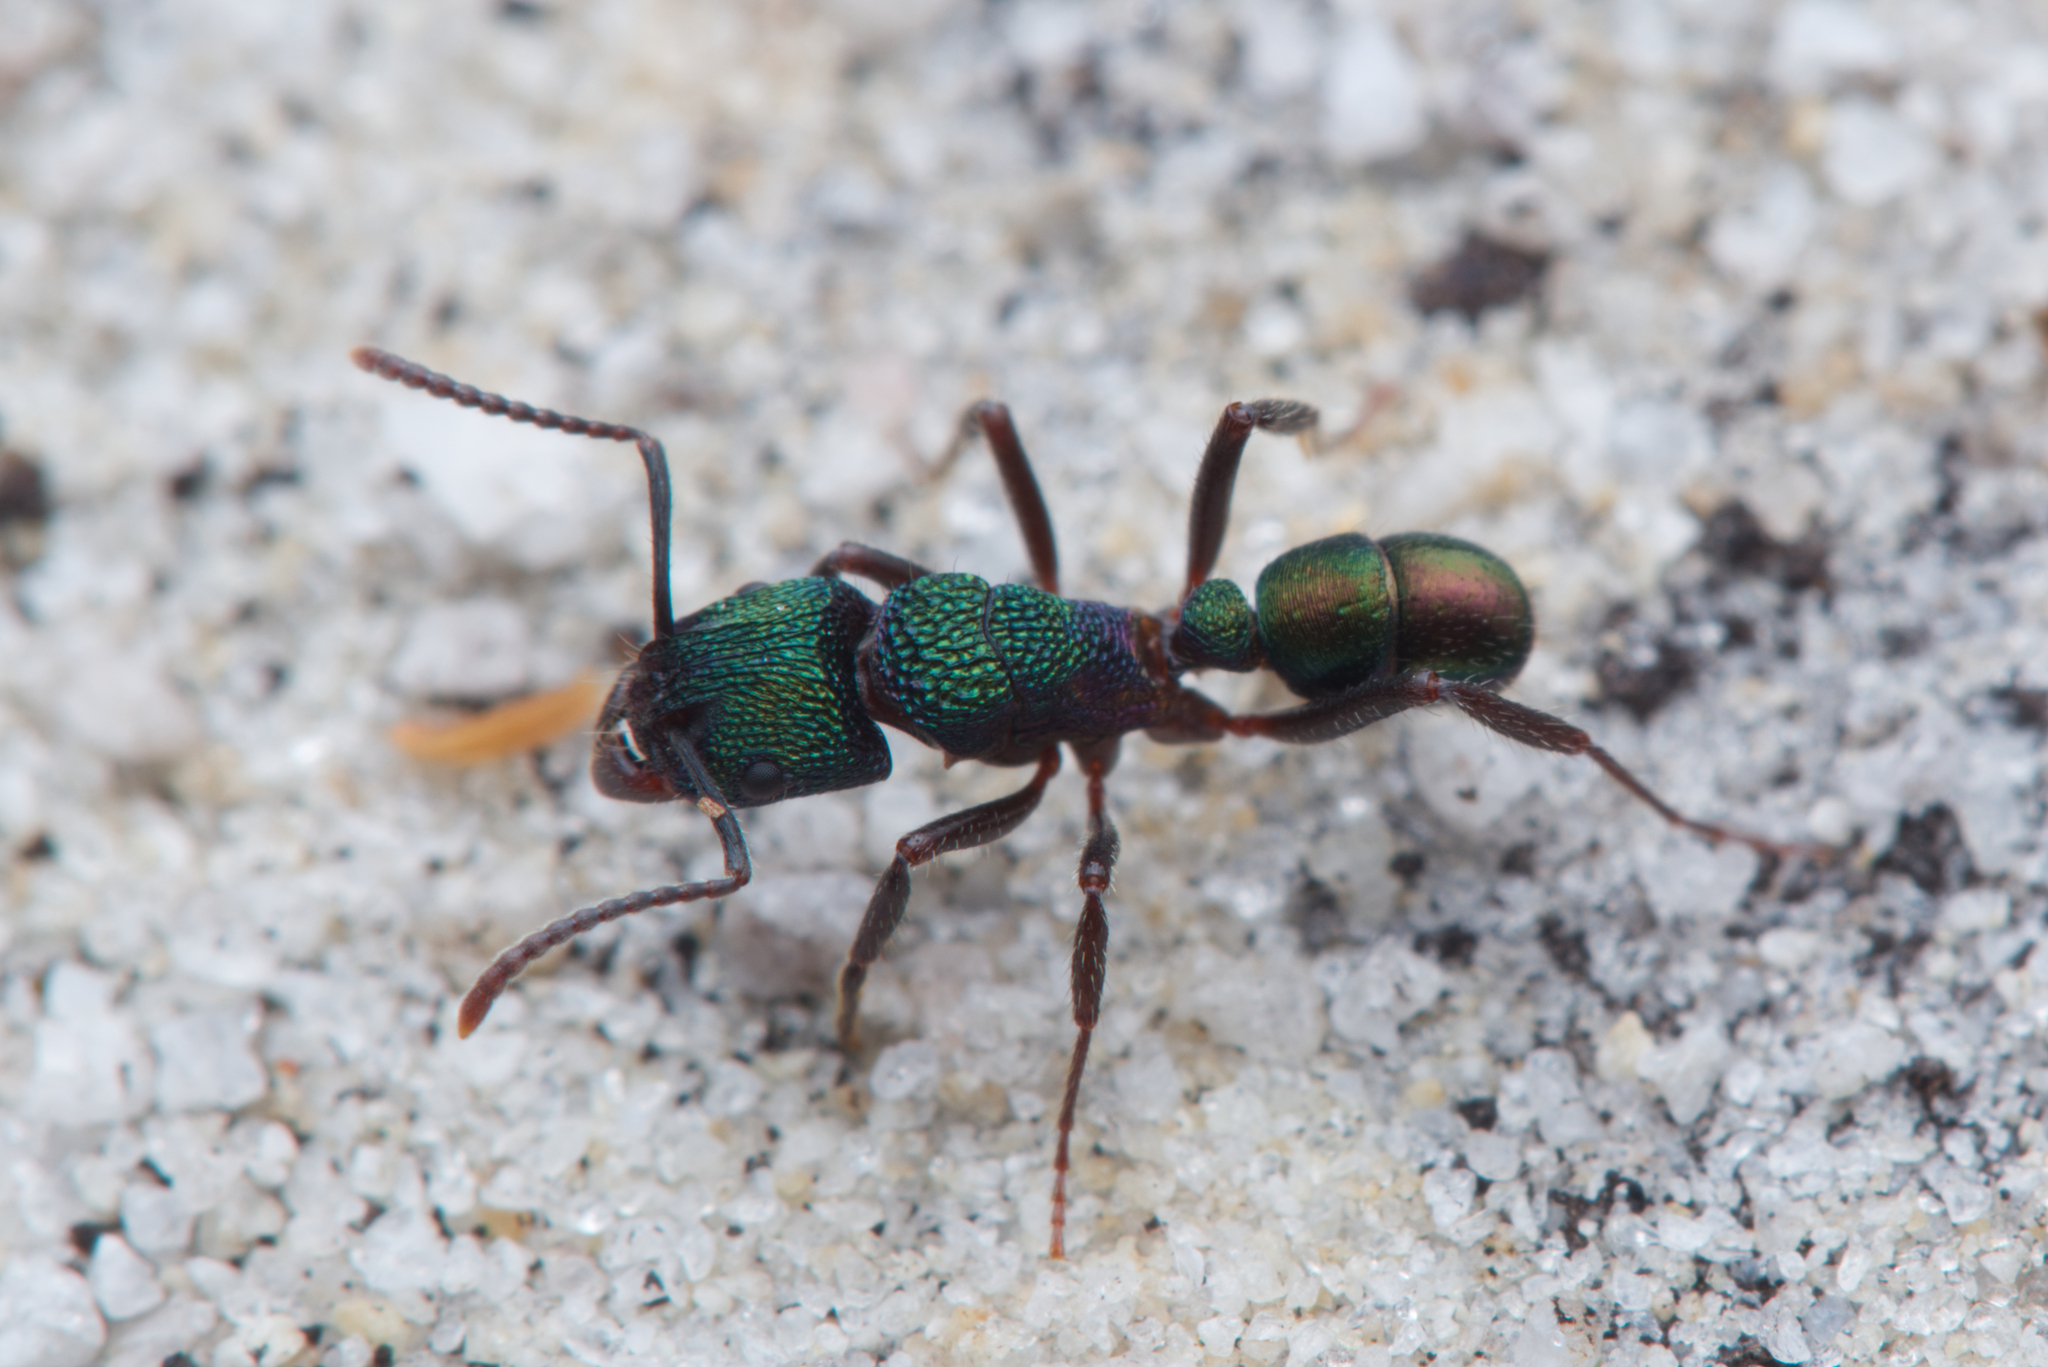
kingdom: Animalia
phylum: Arthropoda
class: Insecta
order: Hymenoptera
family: Formicidae
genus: Rhytidoponera
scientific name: Rhytidoponera metallica
